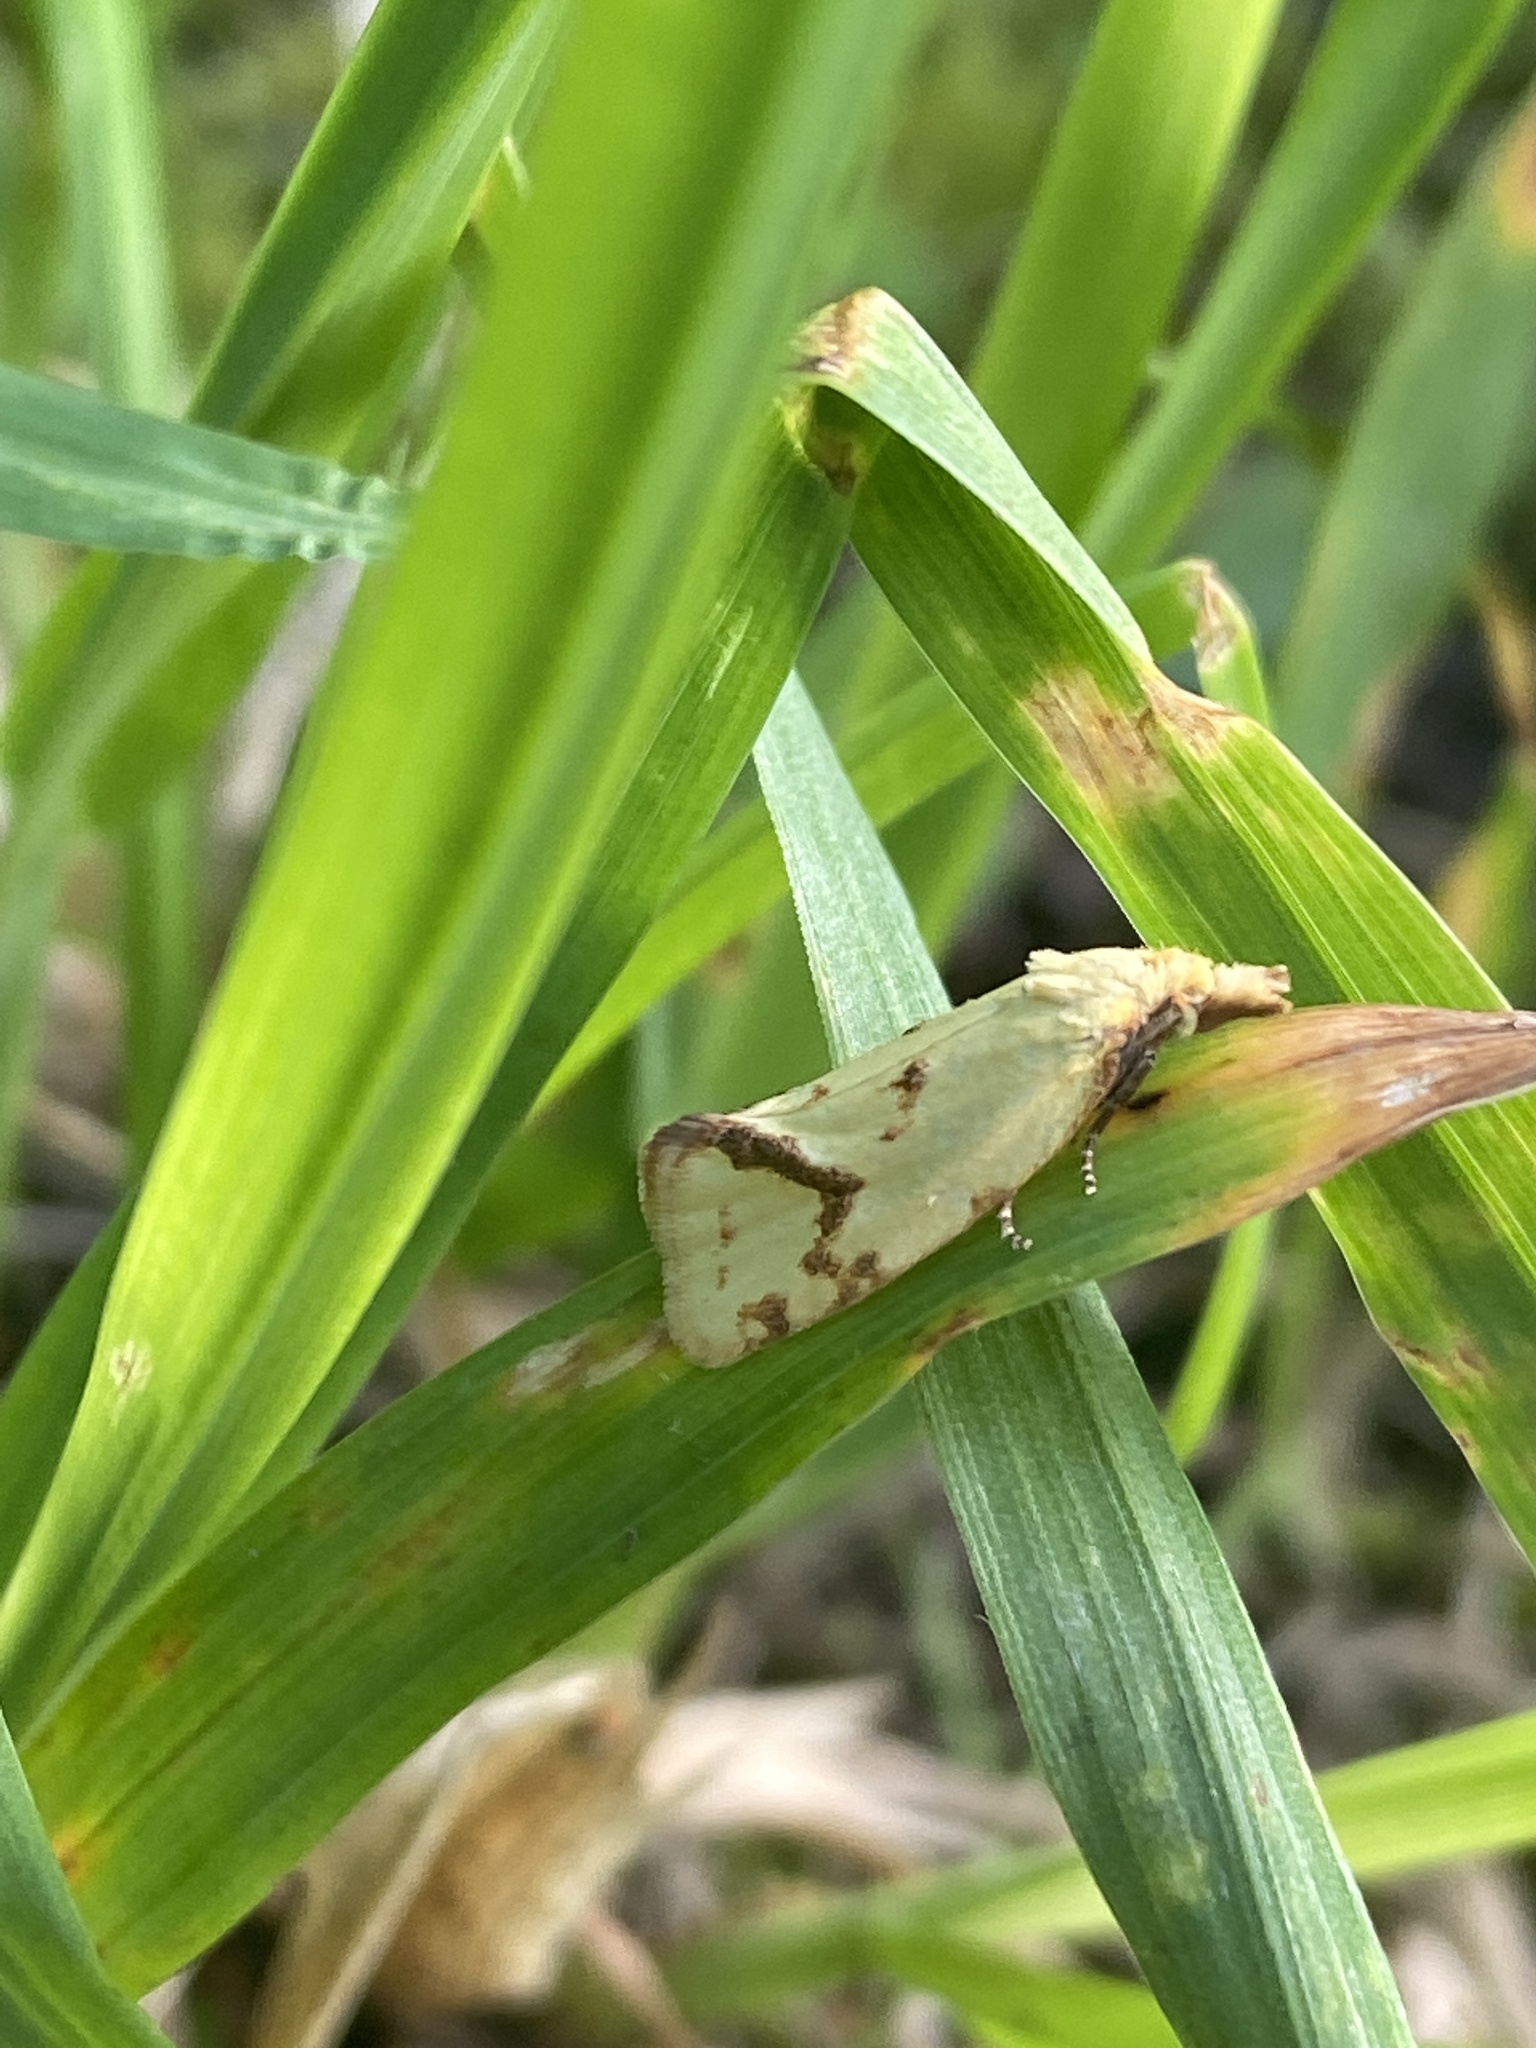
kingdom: Animalia
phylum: Arthropoda
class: Insecta
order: Lepidoptera
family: Tortricidae
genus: Agapeta
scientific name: Agapeta hamana
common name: Common yellow conch
